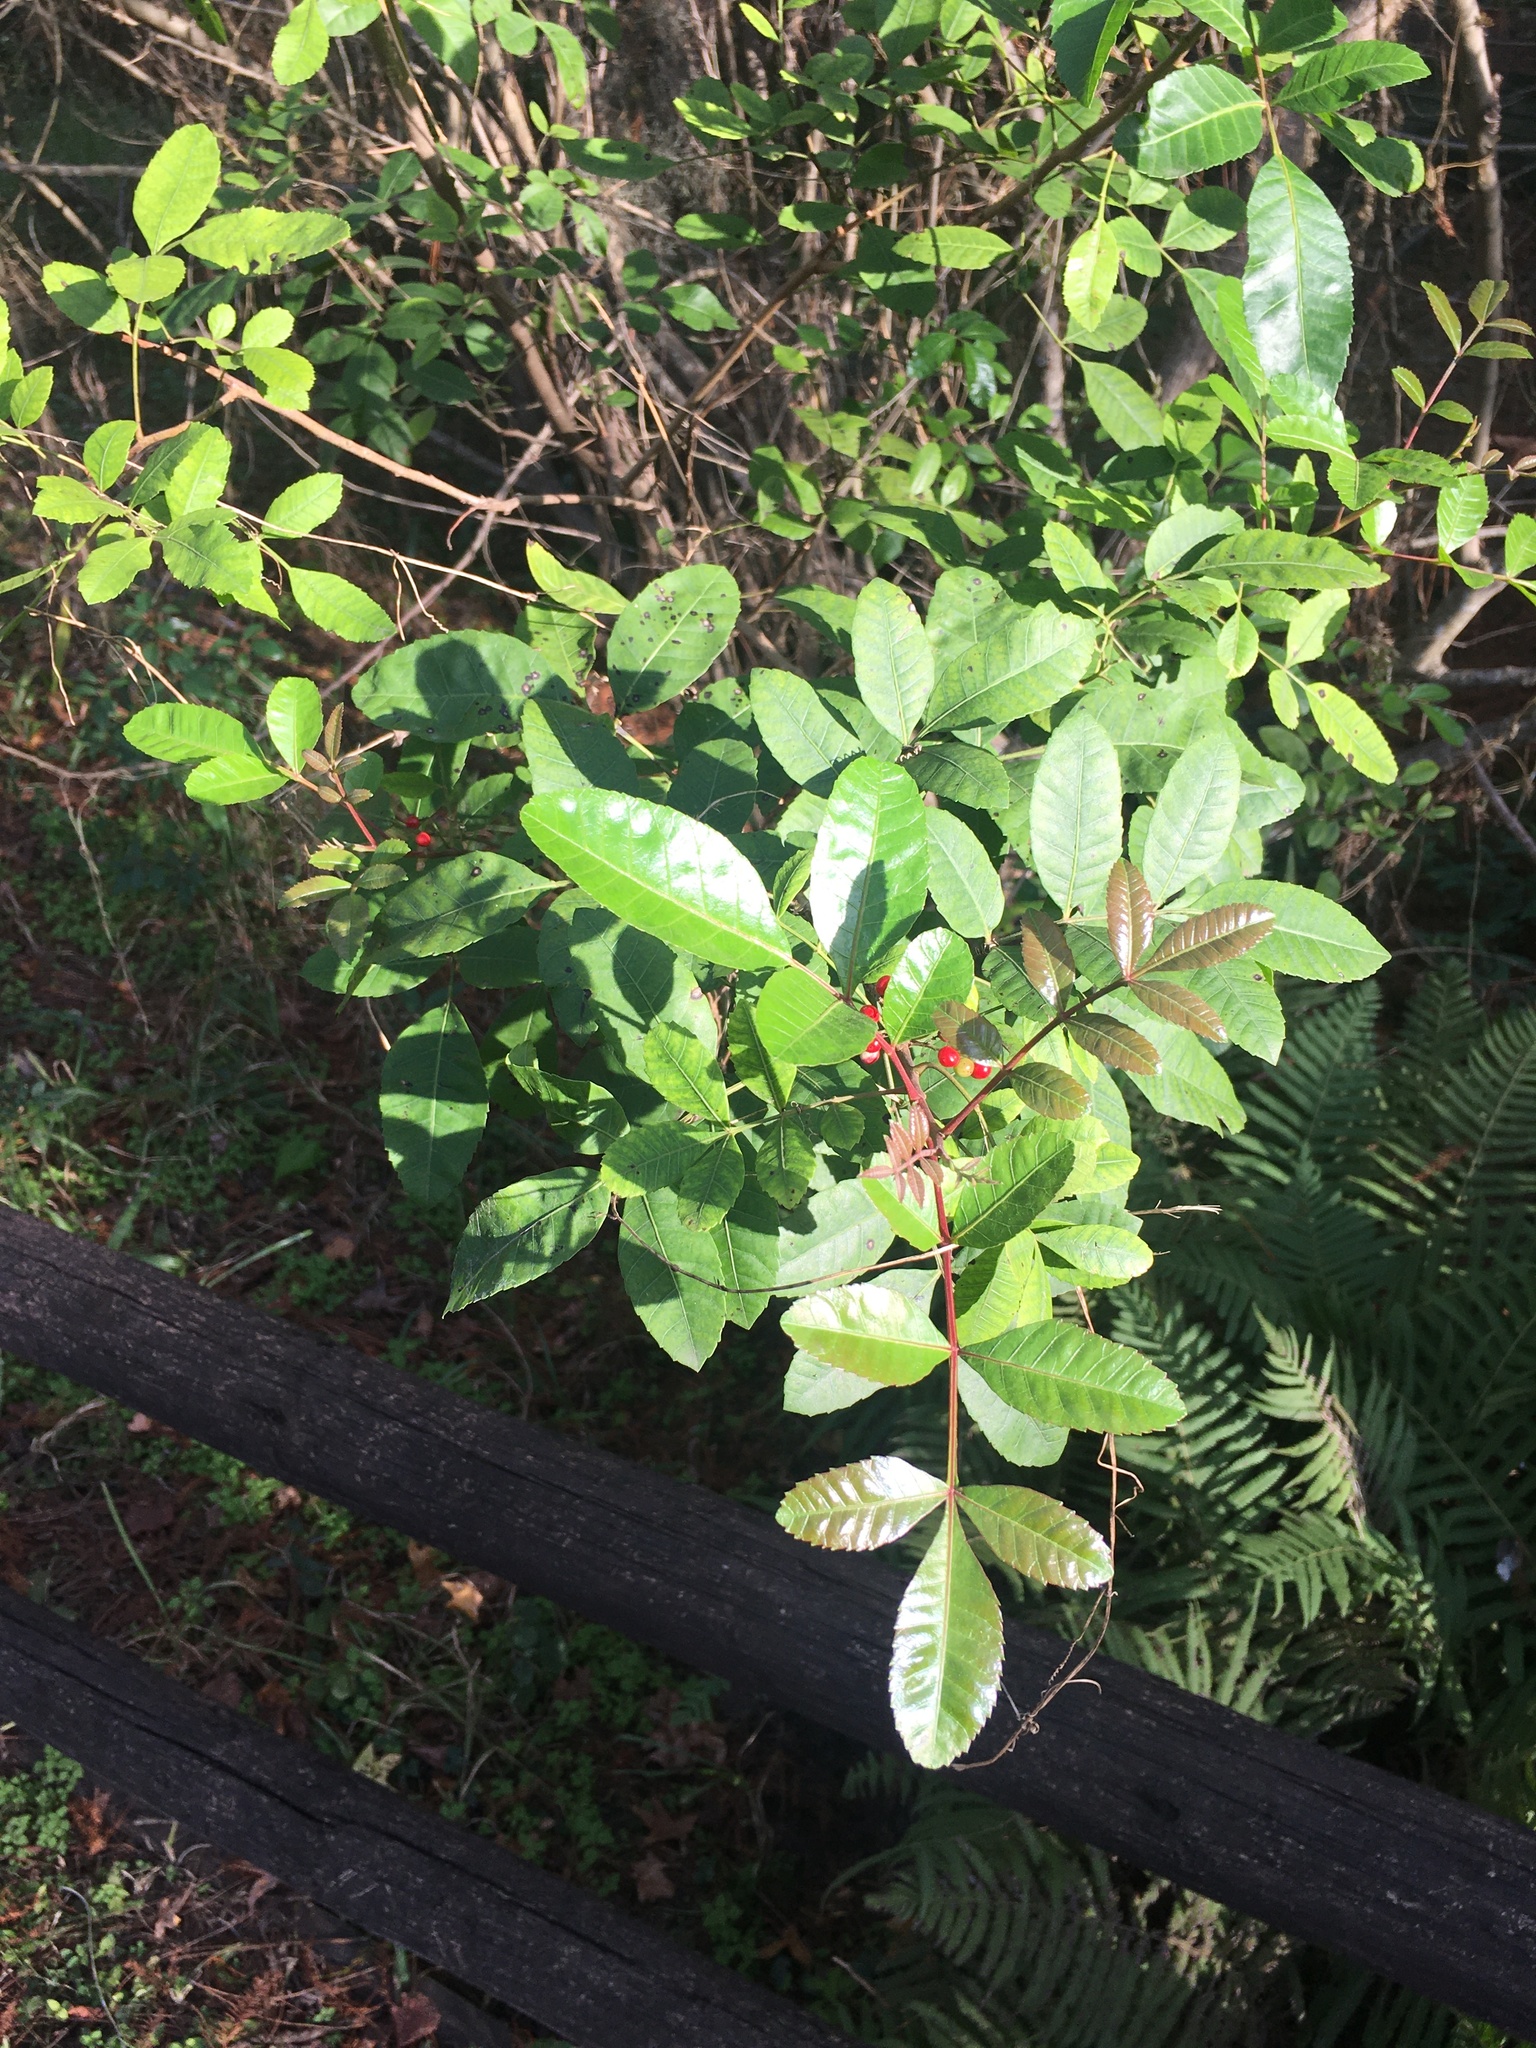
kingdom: Plantae
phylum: Tracheophyta
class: Magnoliopsida
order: Sapindales
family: Anacardiaceae
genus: Schinus
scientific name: Schinus terebinthifolia
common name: Brazilian peppertree
